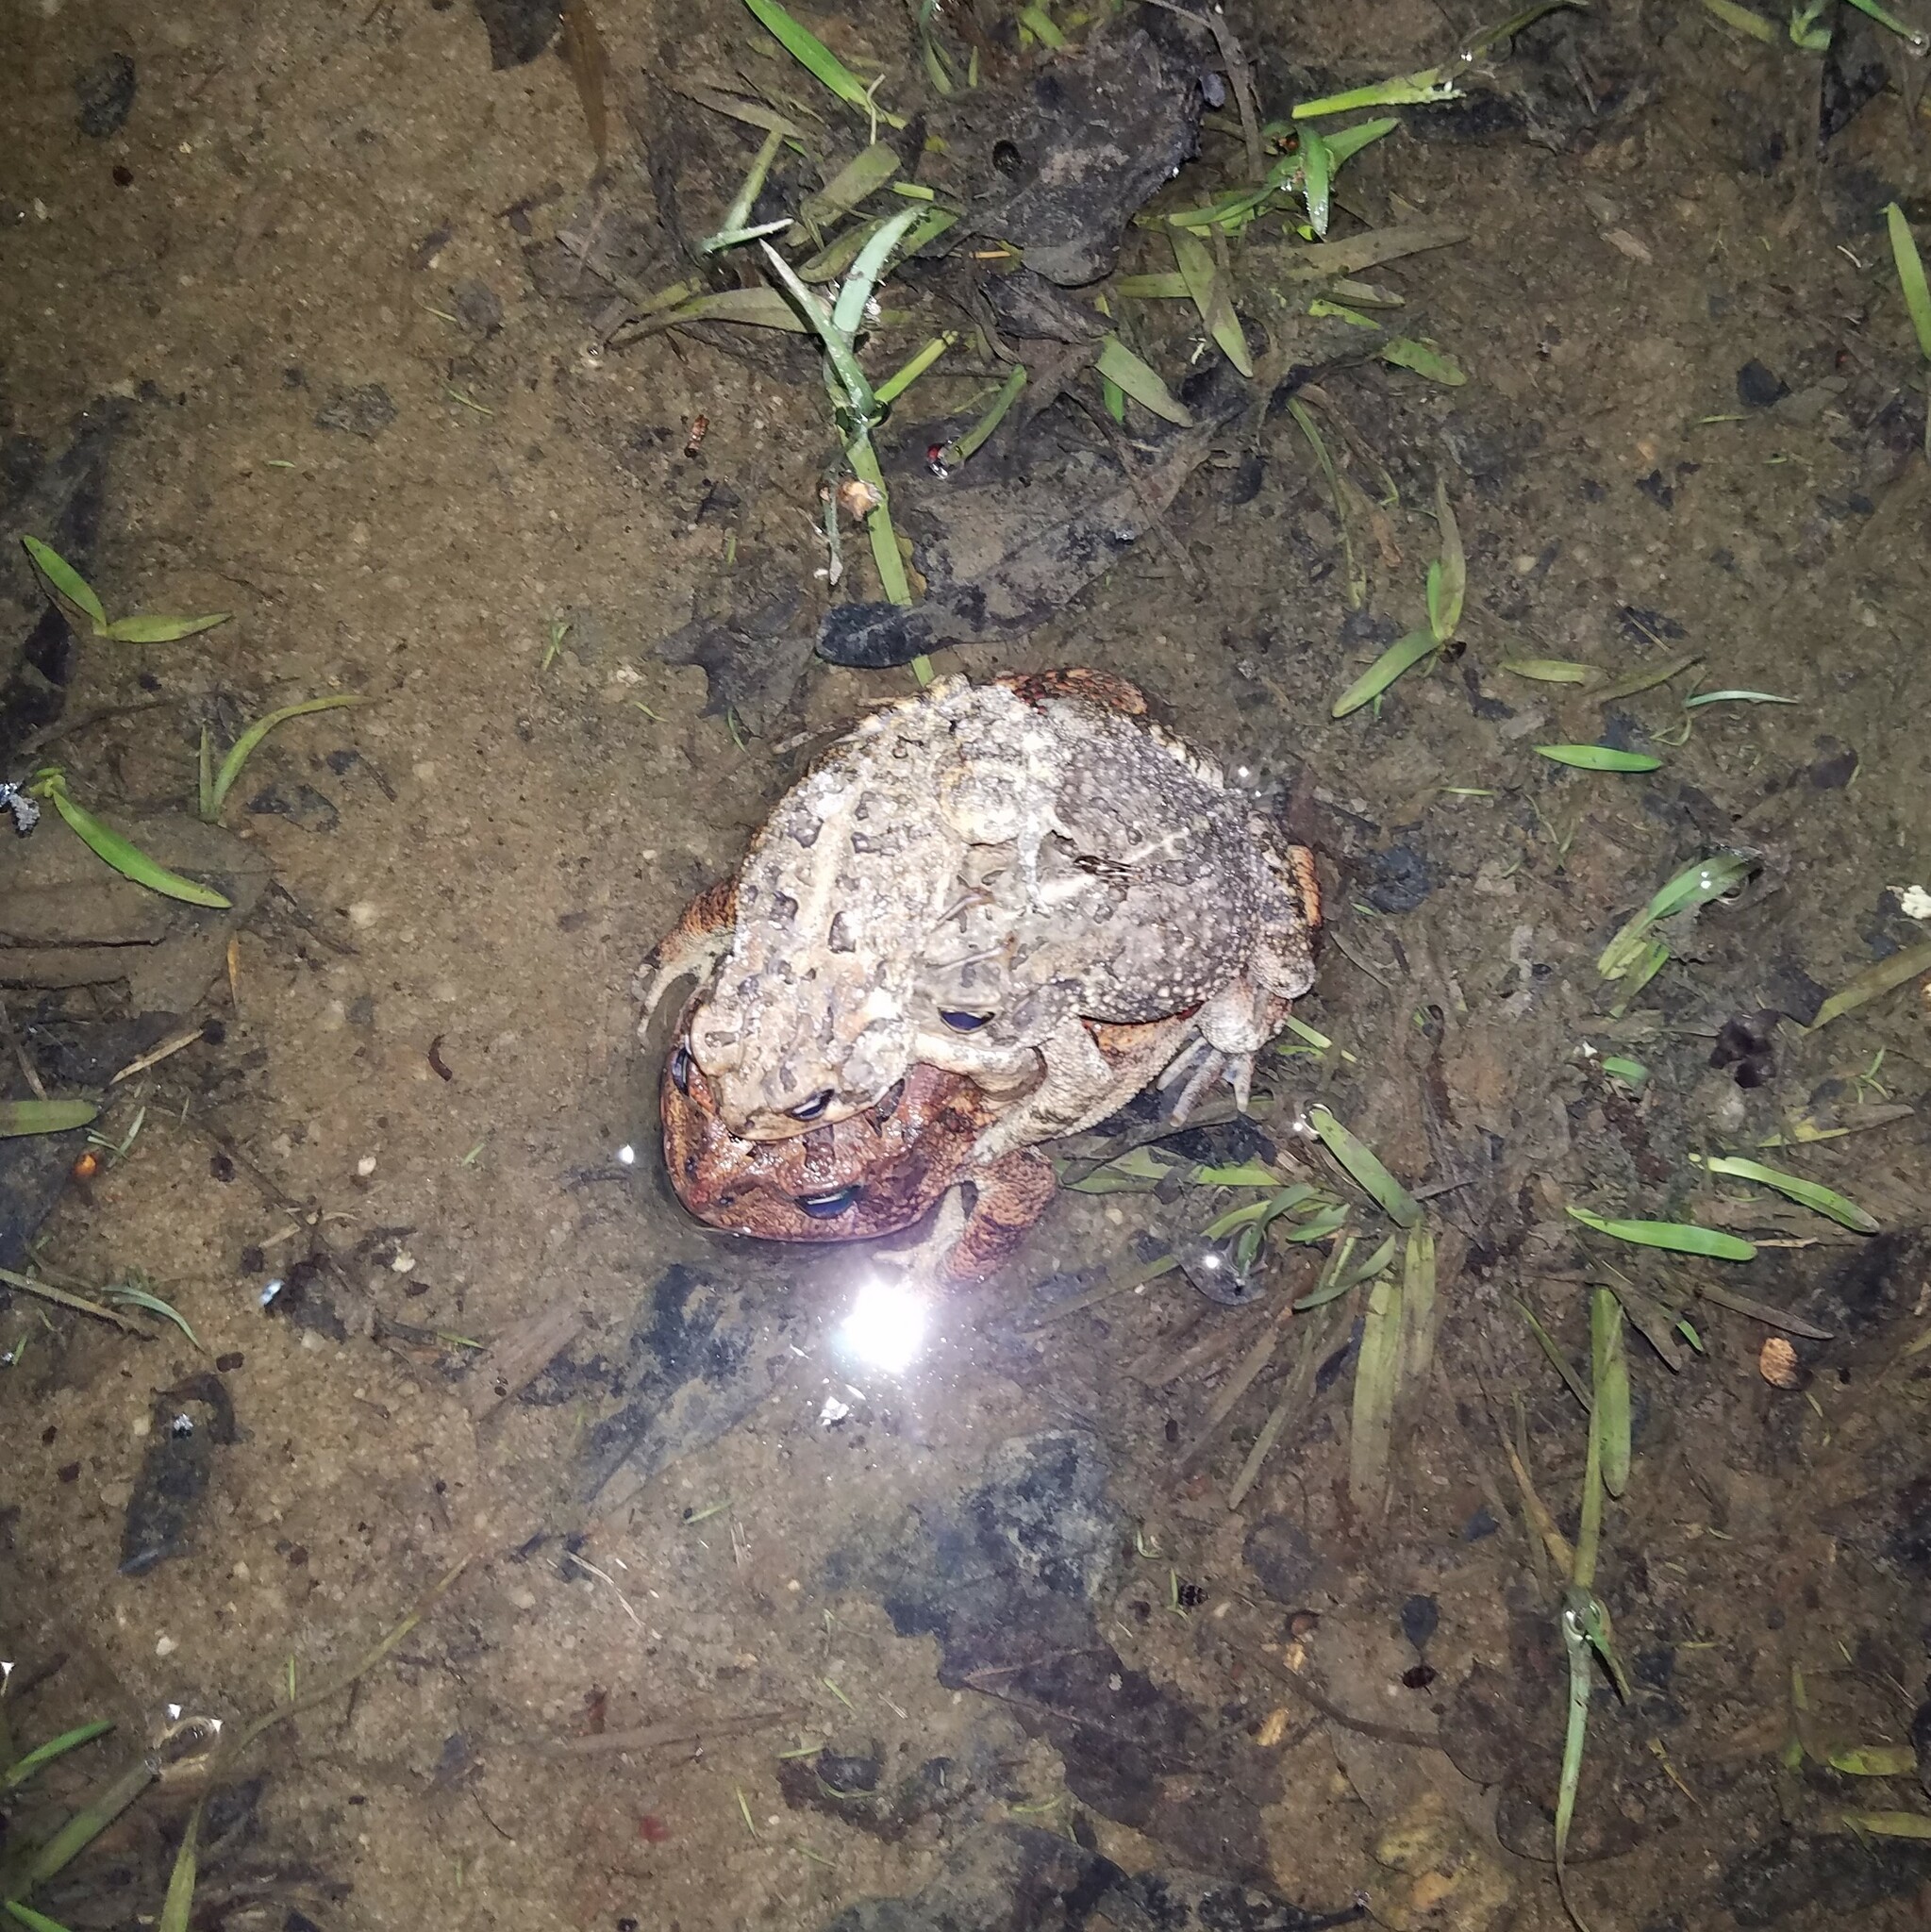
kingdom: Animalia
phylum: Chordata
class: Amphibia
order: Anura
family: Bufonidae
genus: Anaxyrus
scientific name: Anaxyrus terrestris
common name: Southern toad
